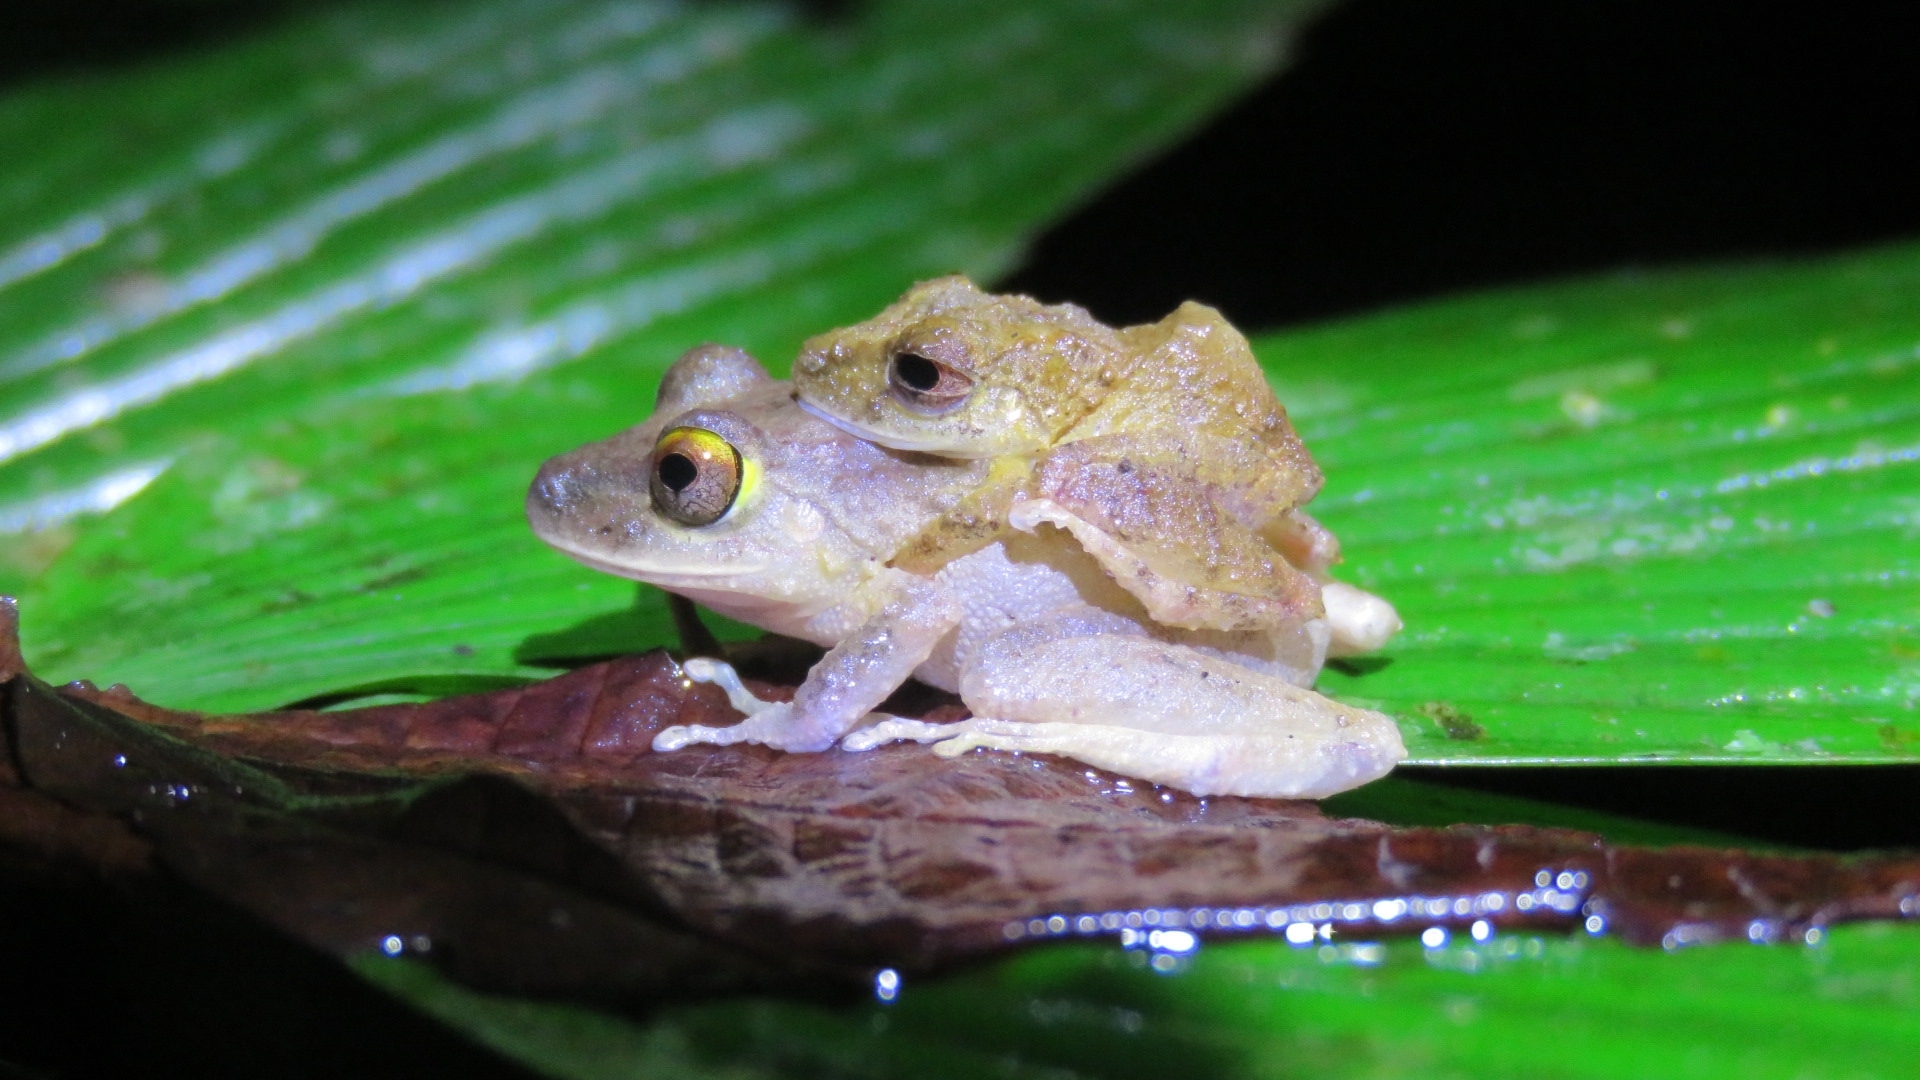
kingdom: Animalia
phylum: Chordata
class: Amphibia
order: Anura
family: Craugastoridae
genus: Pristimantis
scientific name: Pristimantis cerasinus
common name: Limon robber frog
